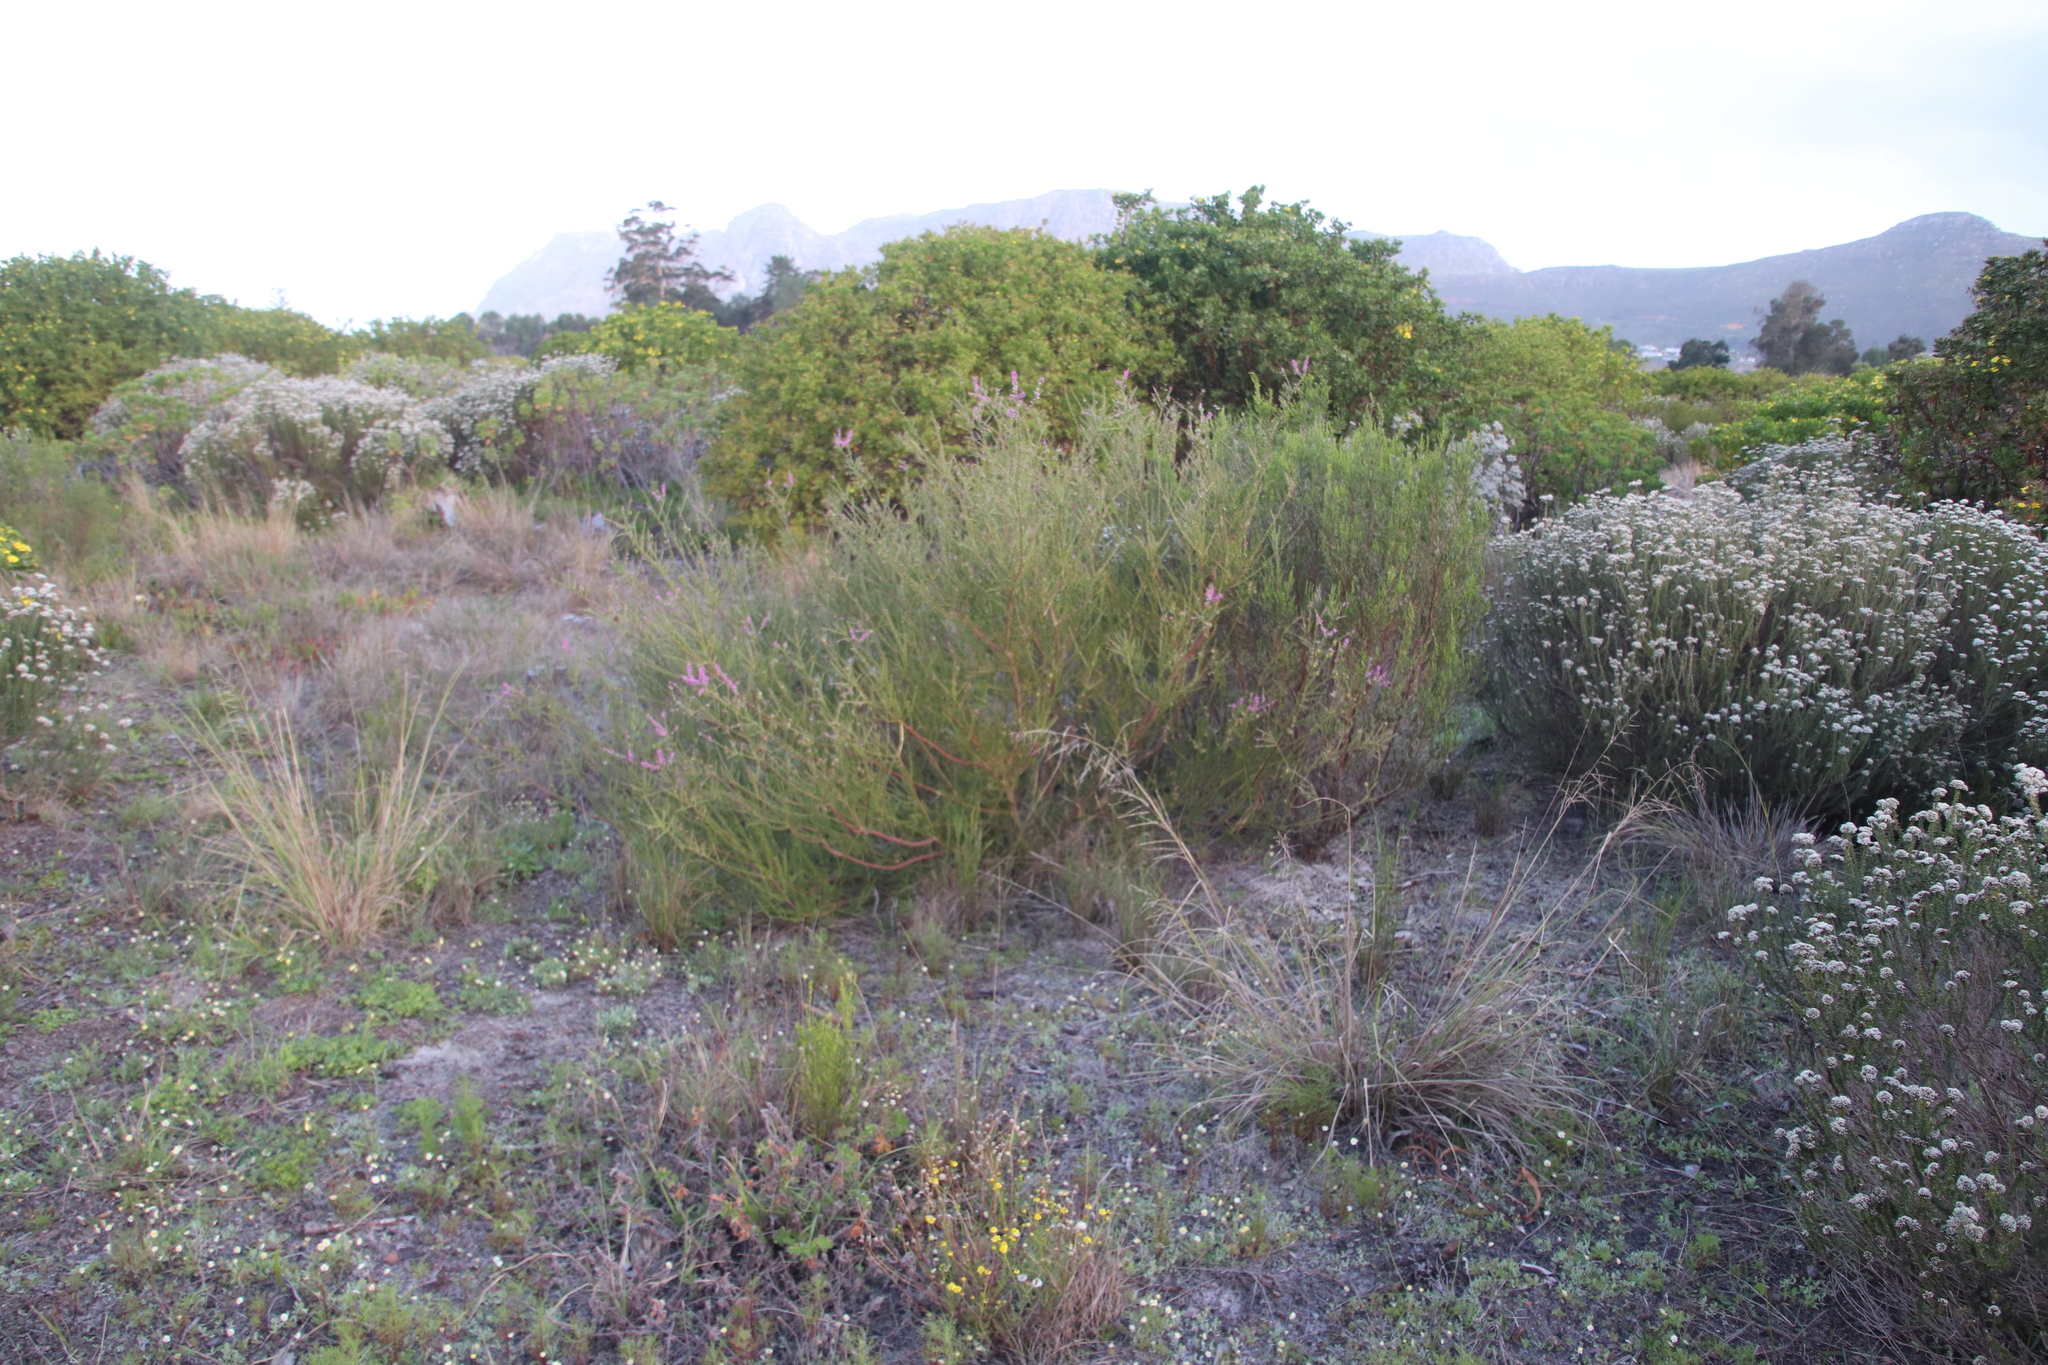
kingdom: Plantae
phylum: Tracheophyta
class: Magnoliopsida
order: Fabales
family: Polygalaceae
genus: Muraltia
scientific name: Muraltia spinosa
